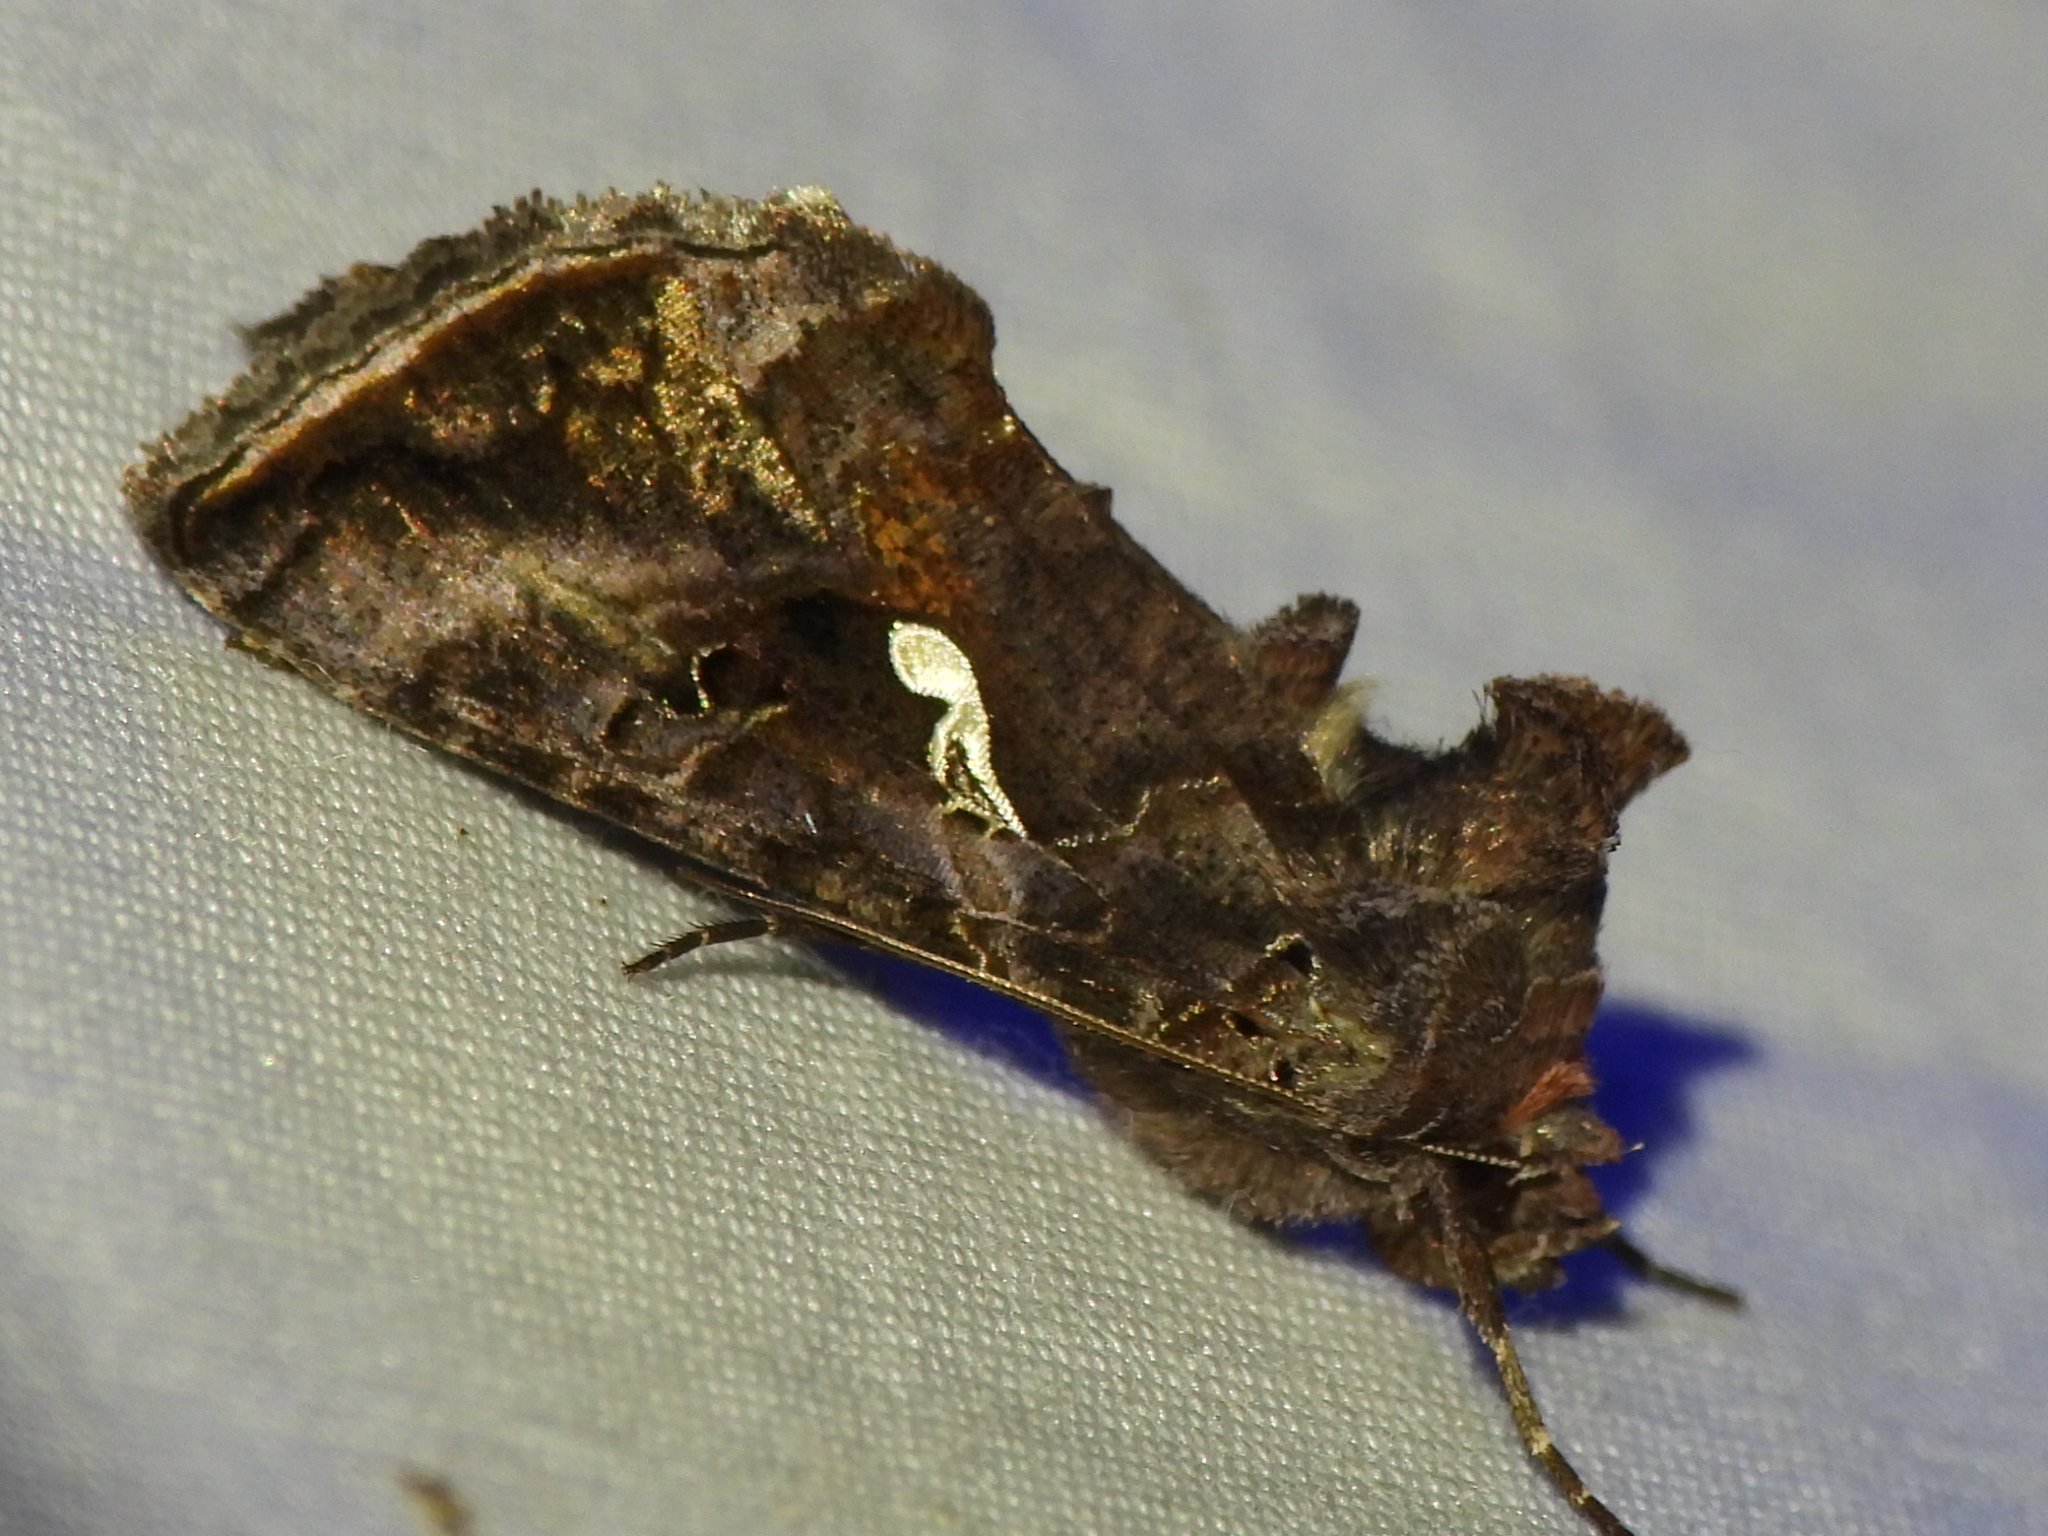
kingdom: Animalia
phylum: Arthropoda
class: Insecta
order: Lepidoptera
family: Noctuidae
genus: Autographa
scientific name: Autographa precationis
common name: Common looper moth
